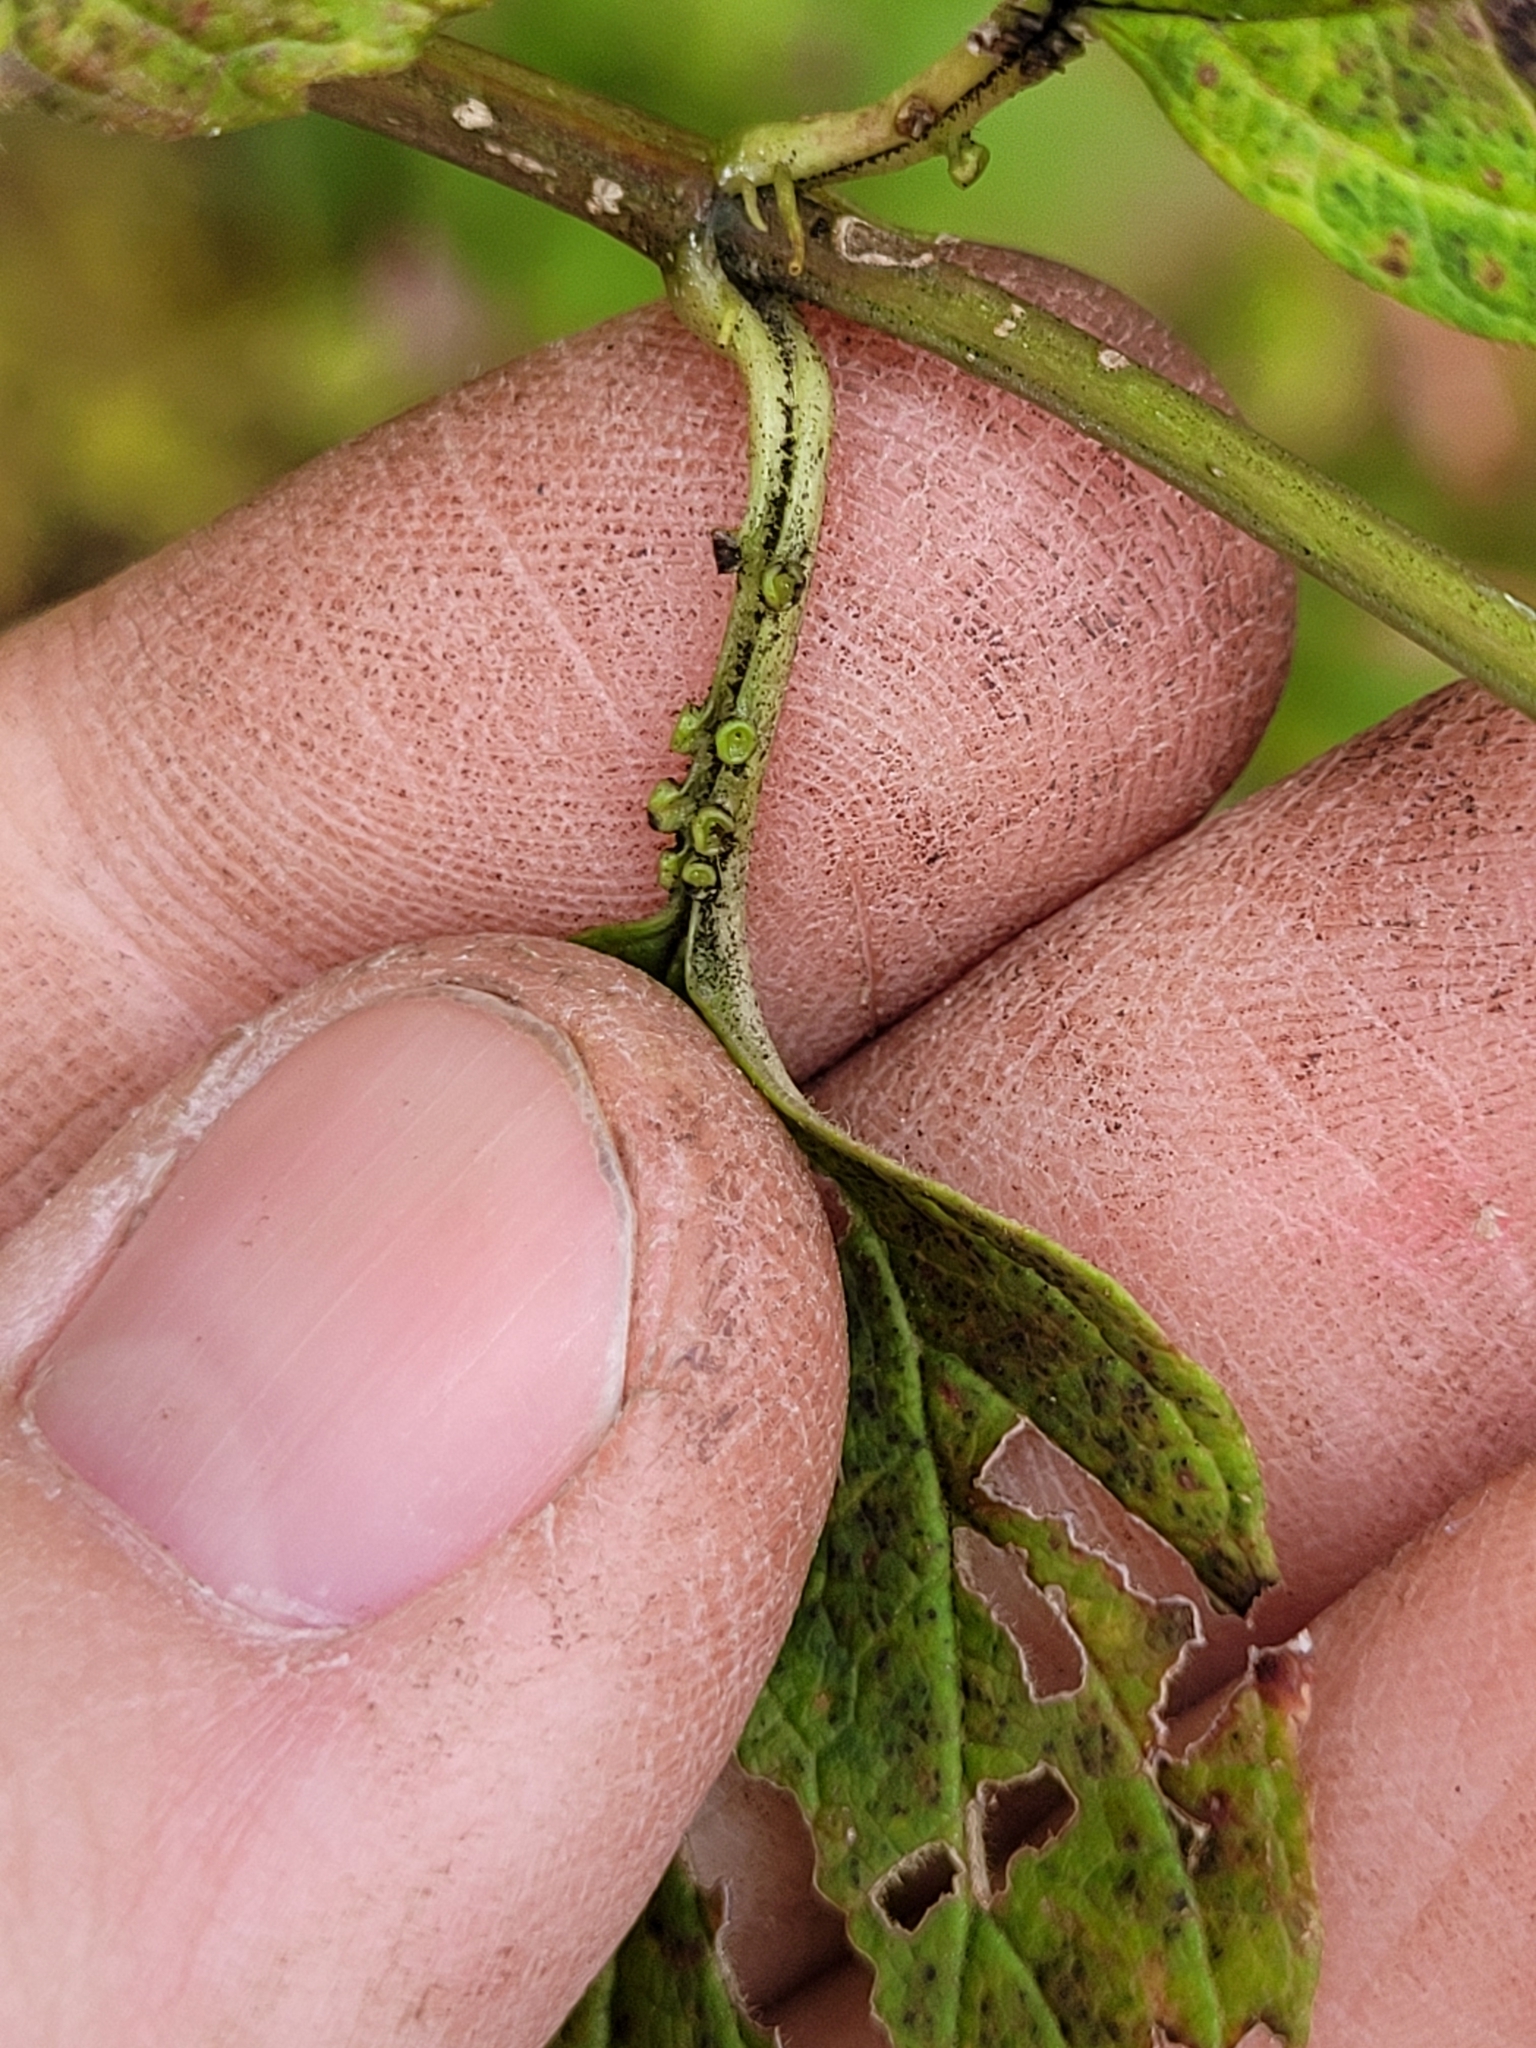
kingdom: Plantae
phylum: Tracheophyta
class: Magnoliopsida
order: Dipsacales
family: Viburnaceae
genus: Viburnum
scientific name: Viburnum opulus
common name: Guelder-rose
